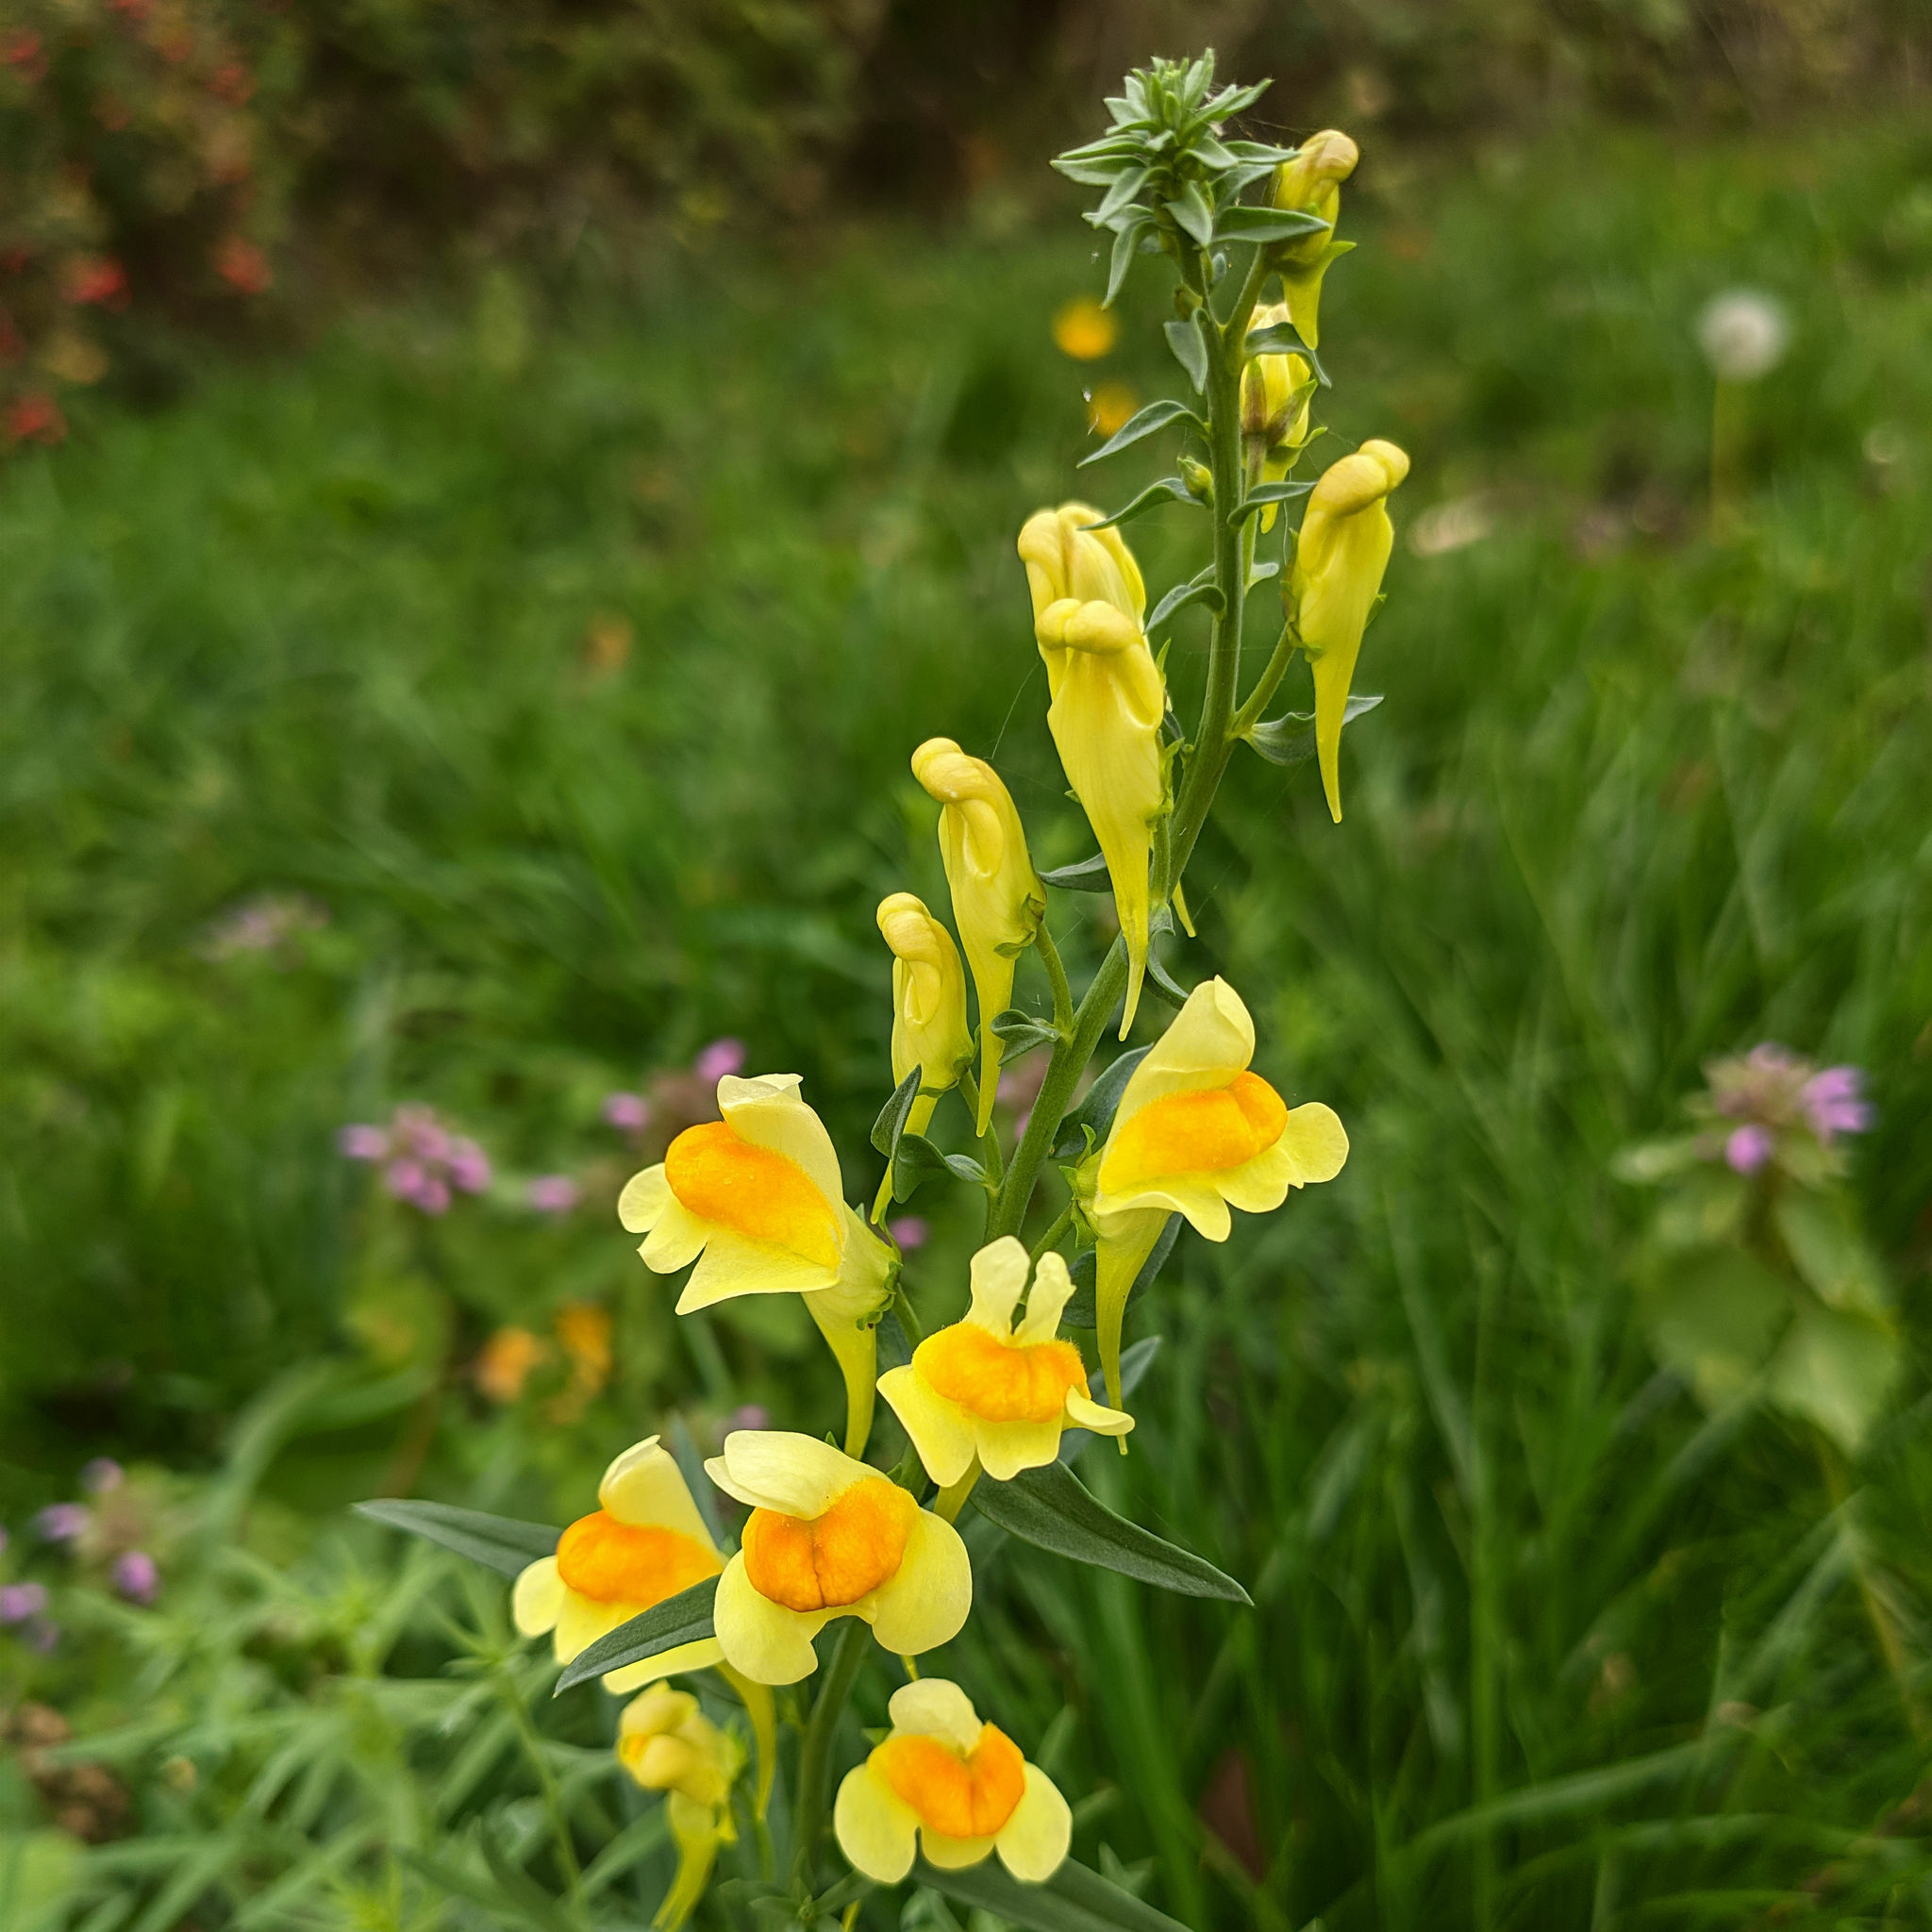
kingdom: Plantae
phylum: Tracheophyta
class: Magnoliopsida
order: Lamiales
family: Plantaginaceae
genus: Linaria
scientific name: Linaria vulgaris
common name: Butter and eggs
